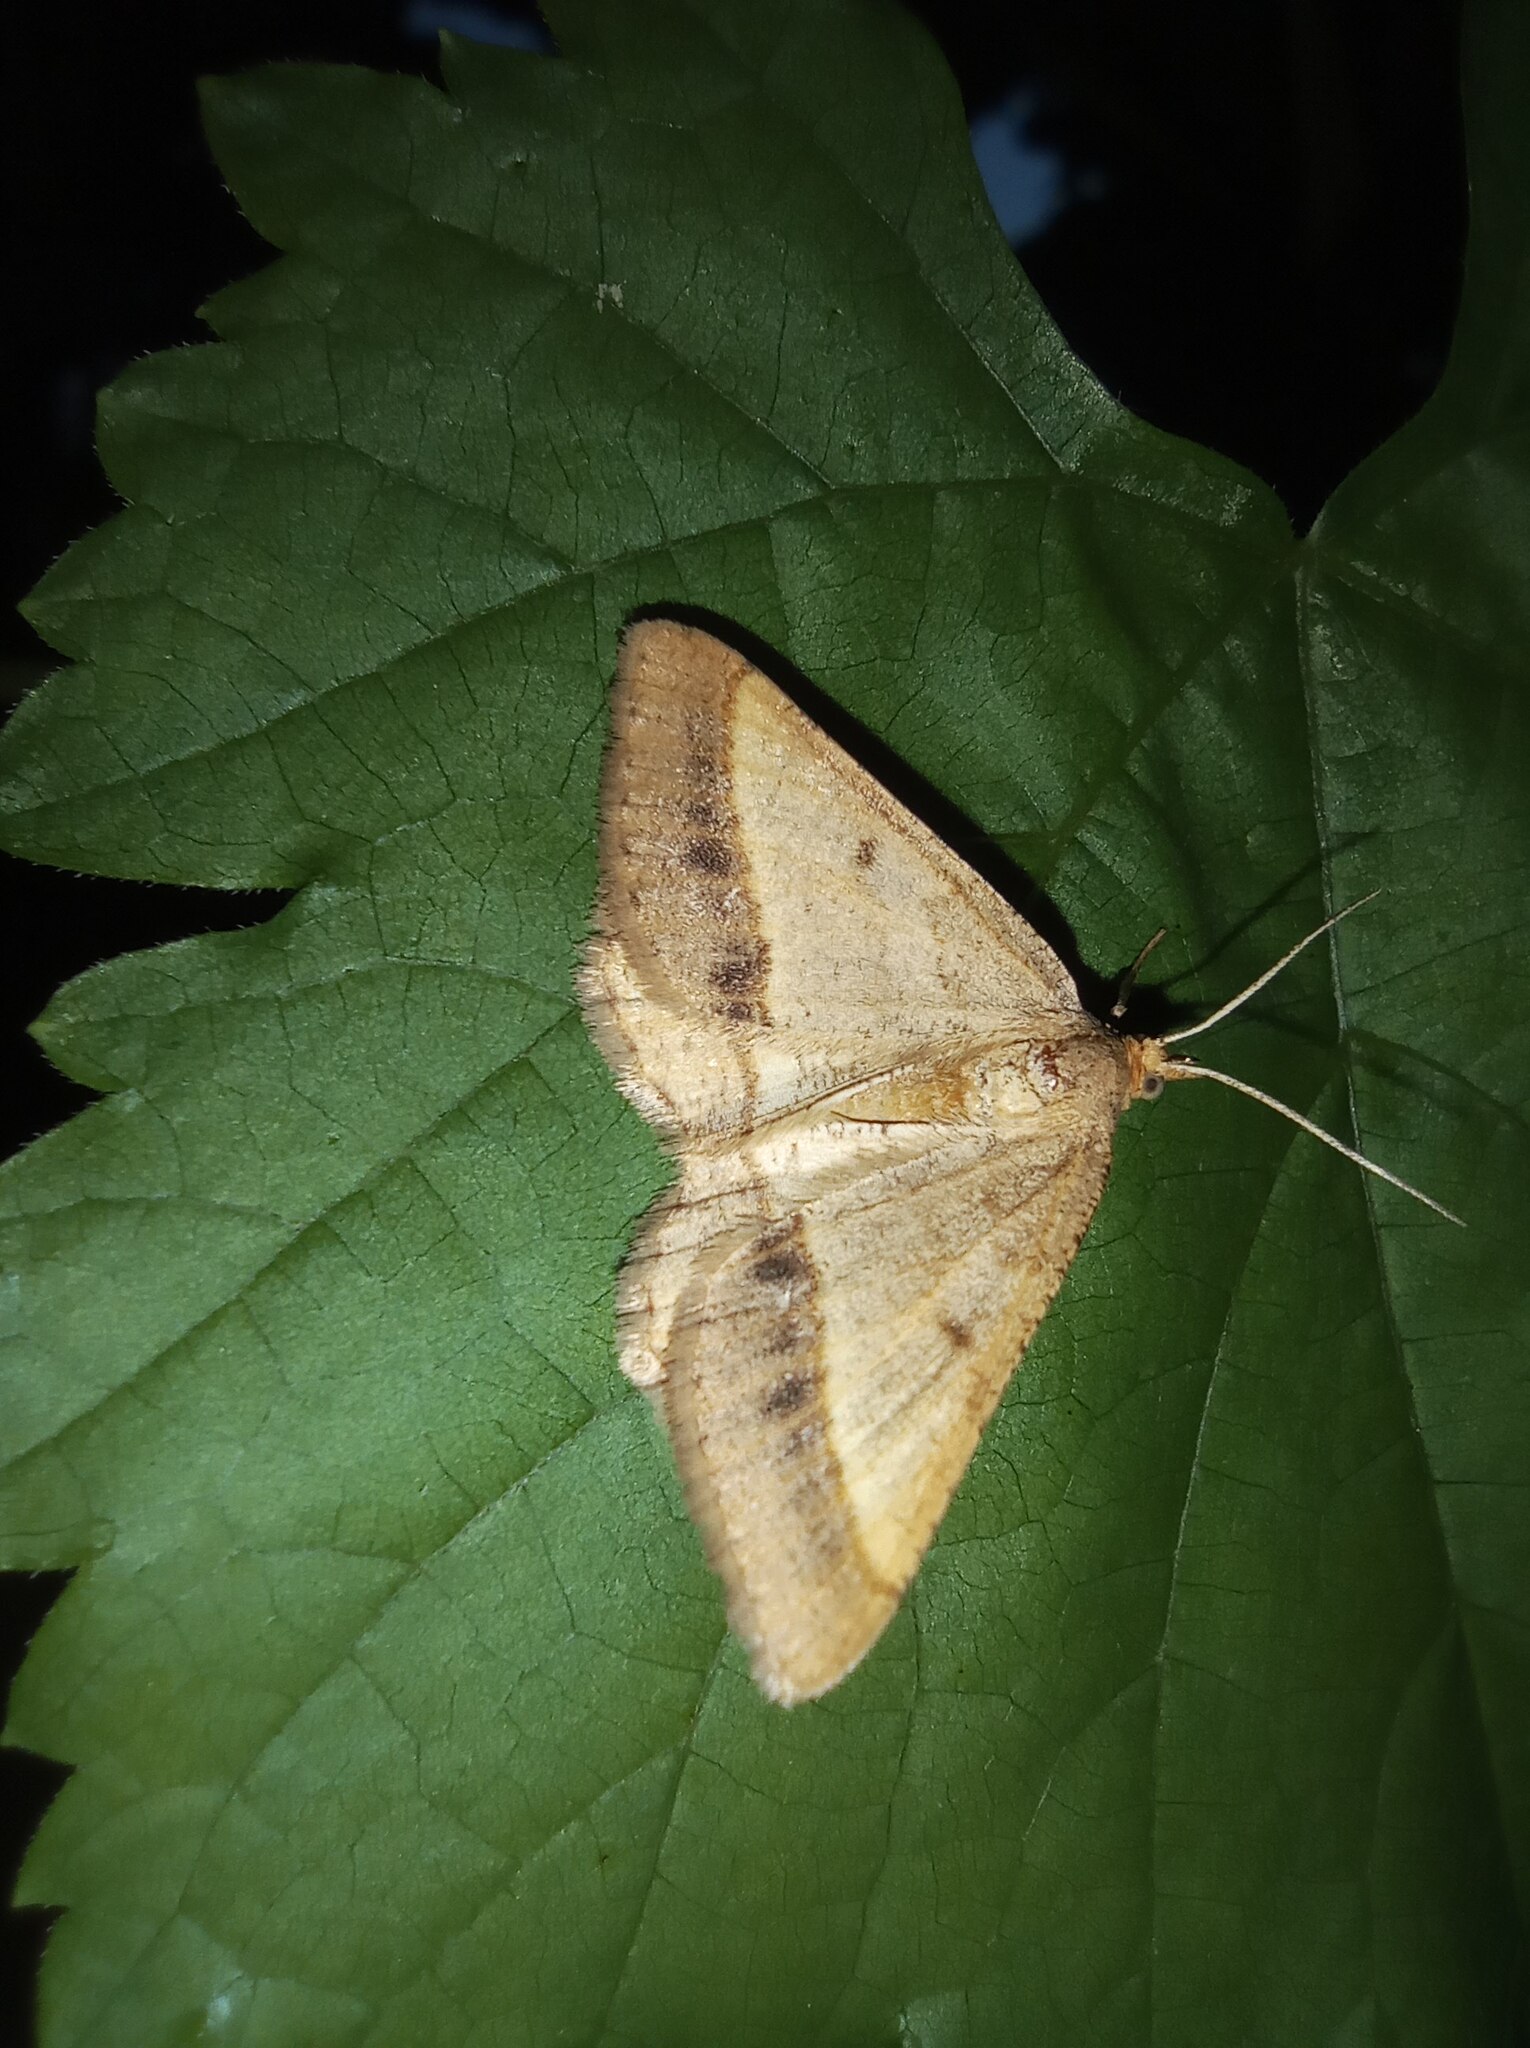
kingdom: Animalia
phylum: Arthropoda
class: Insecta
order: Lepidoptera
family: Geometridae
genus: Tephrina
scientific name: Tephrina arenacearia
